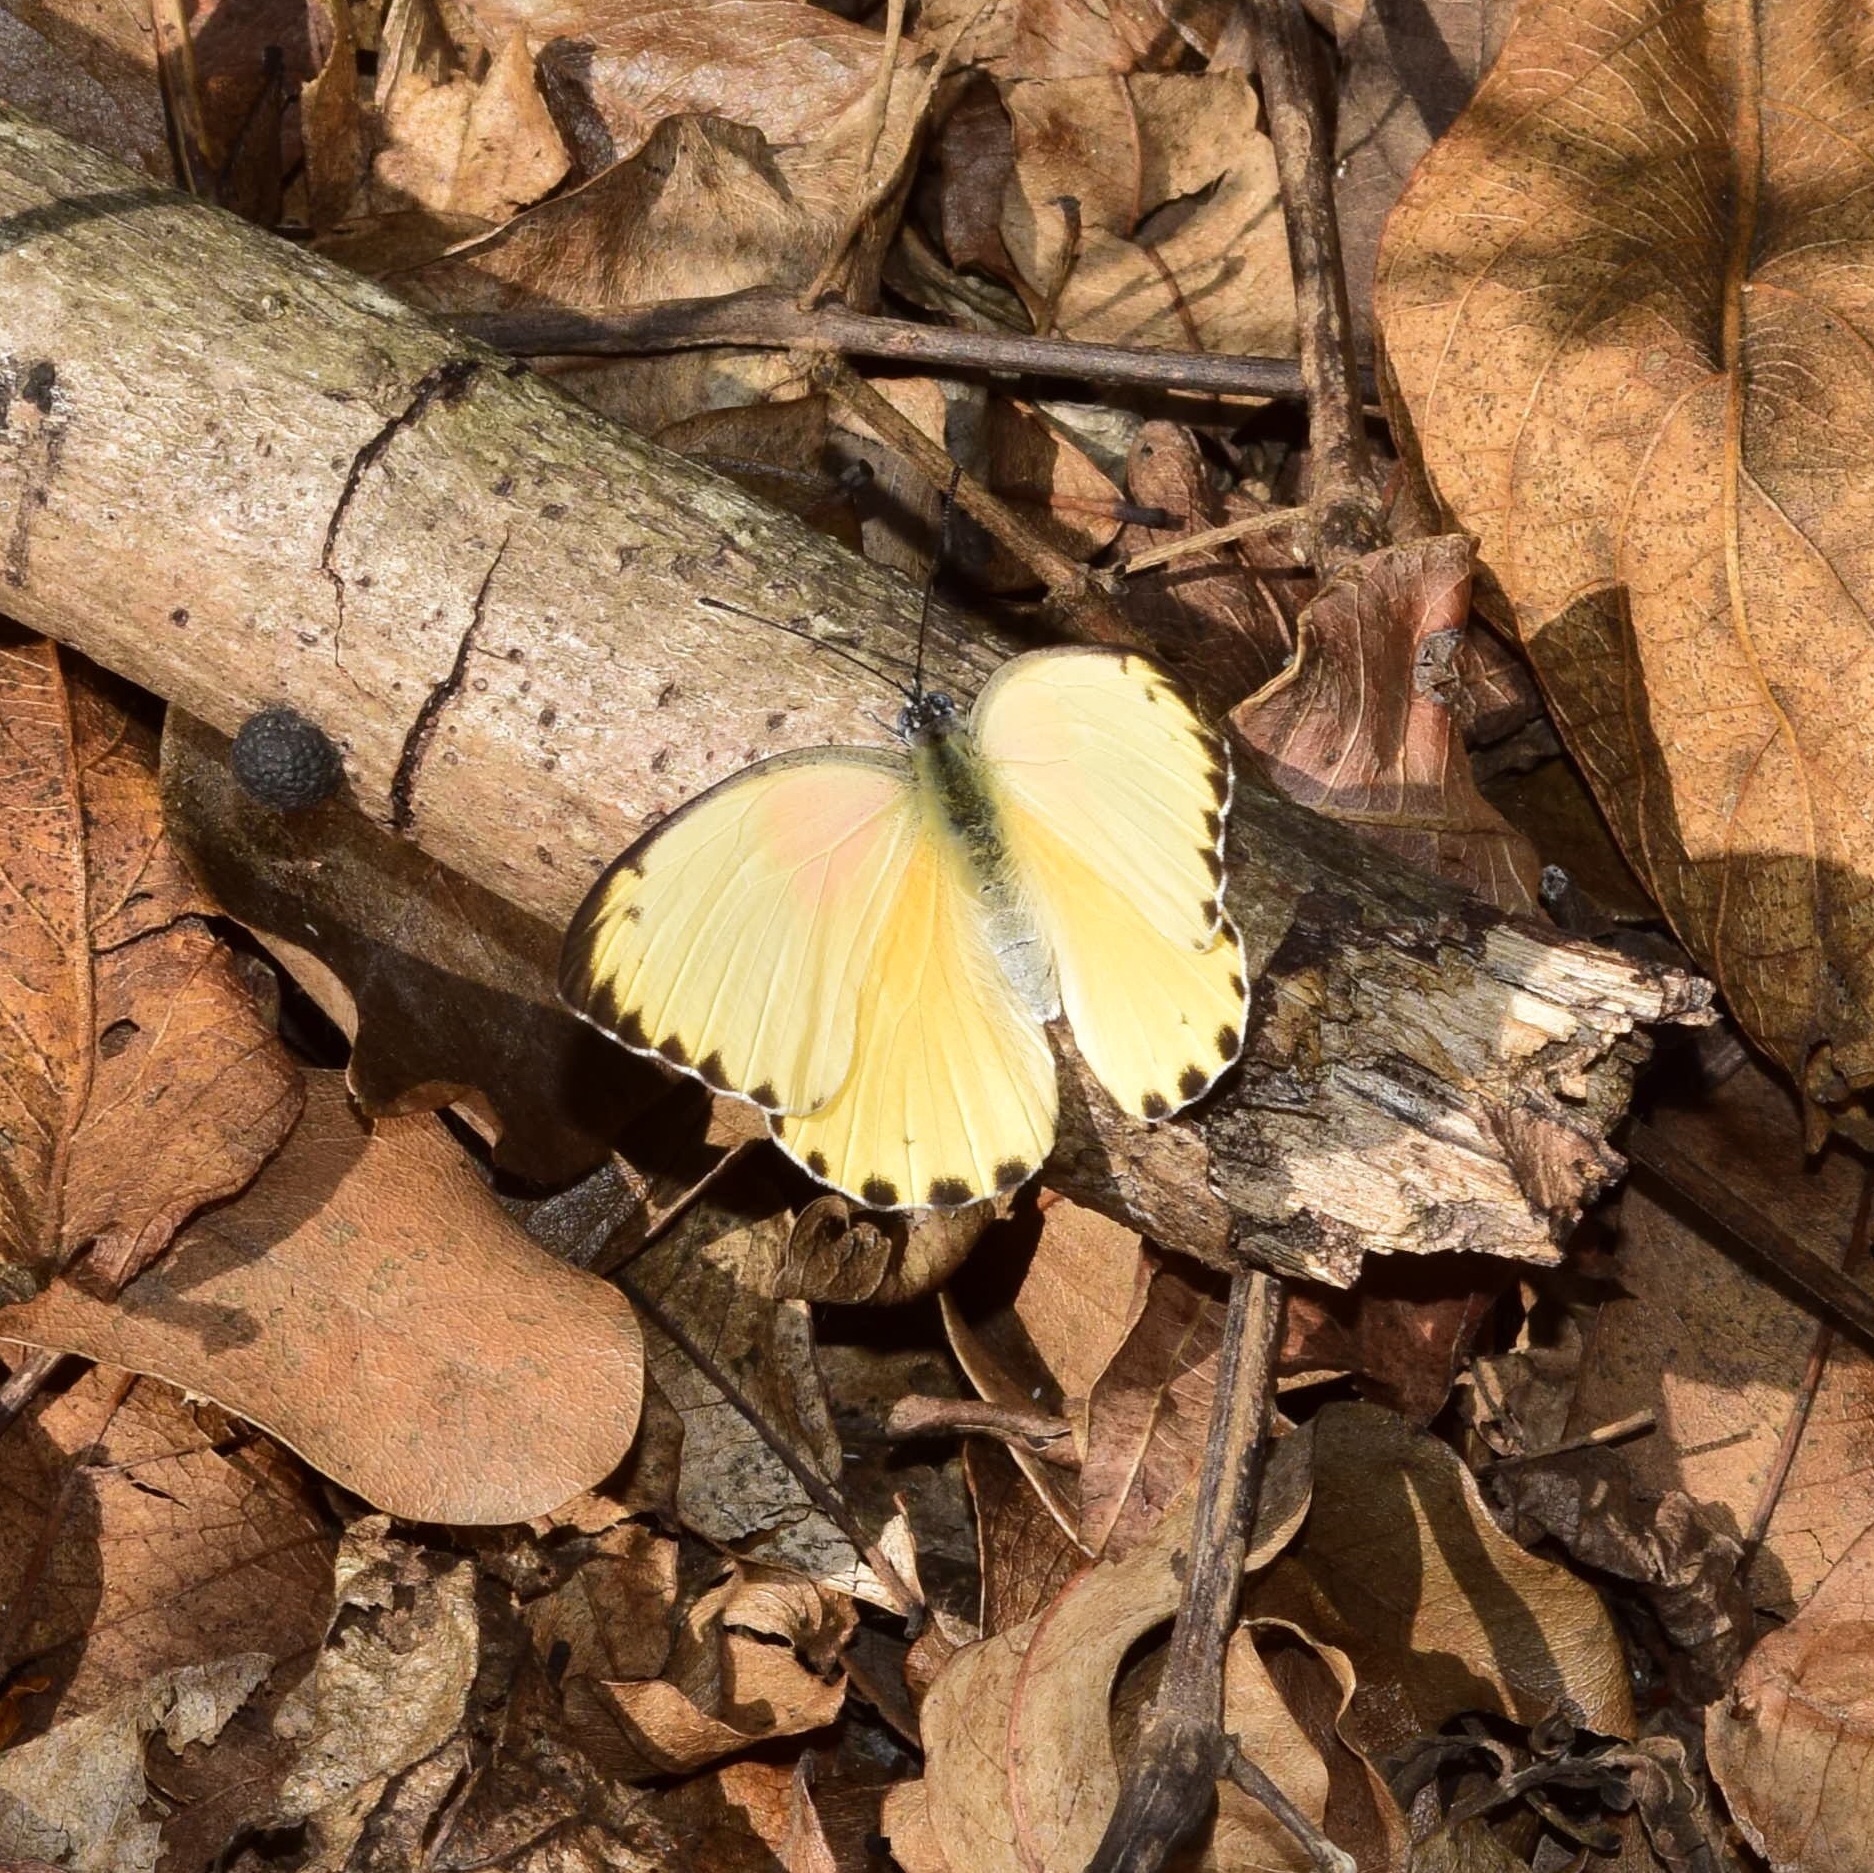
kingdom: Animalia
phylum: Arthropoda
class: Insecta
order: Lepidoptera
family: Pieridae
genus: Belenois
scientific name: Belenois thysa
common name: False dotted border
